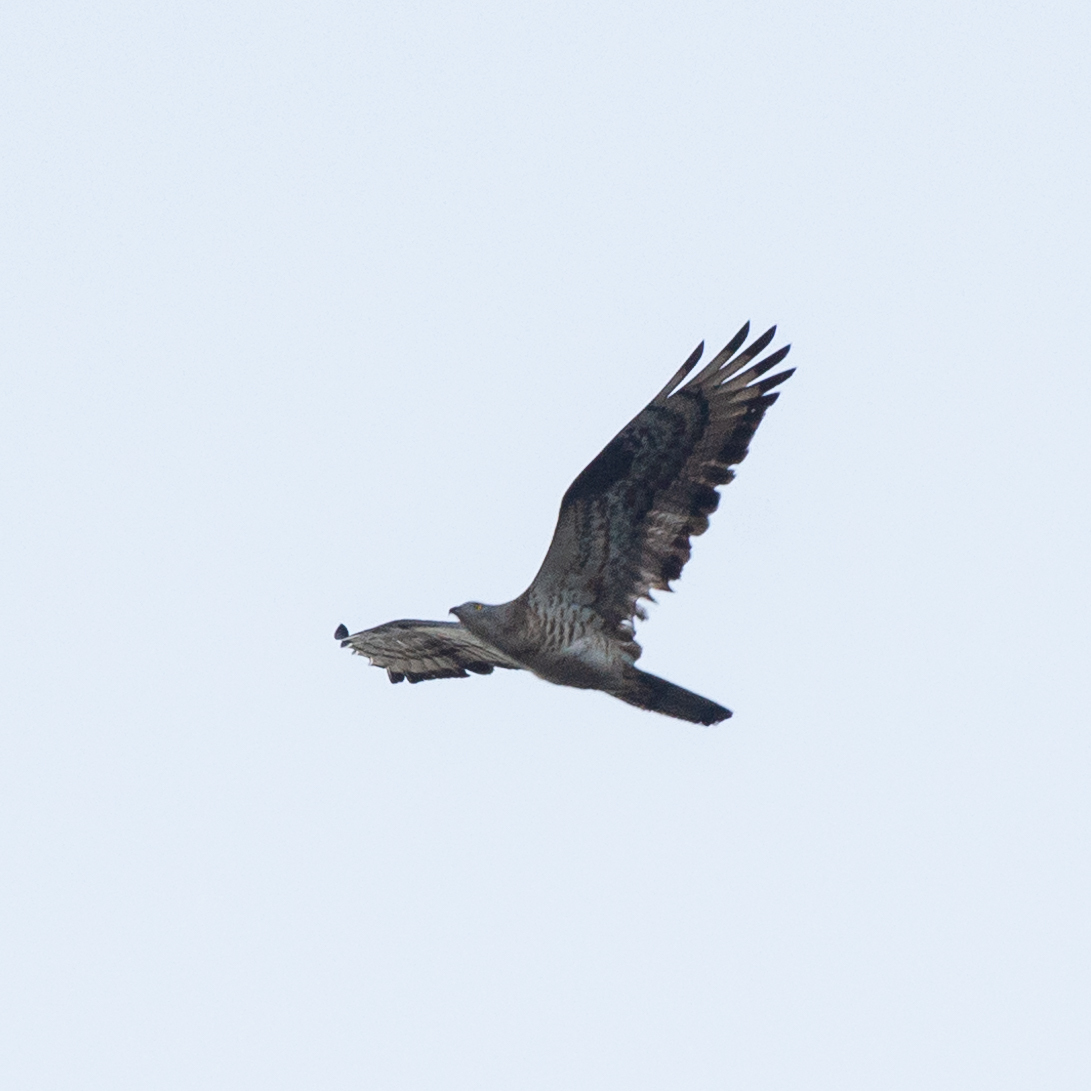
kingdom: Animalia
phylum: Chordata
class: Aves
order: Accipitriformes
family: Accipitridae
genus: Pernis
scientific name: Pernis apivorus
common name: European honey buzzard
